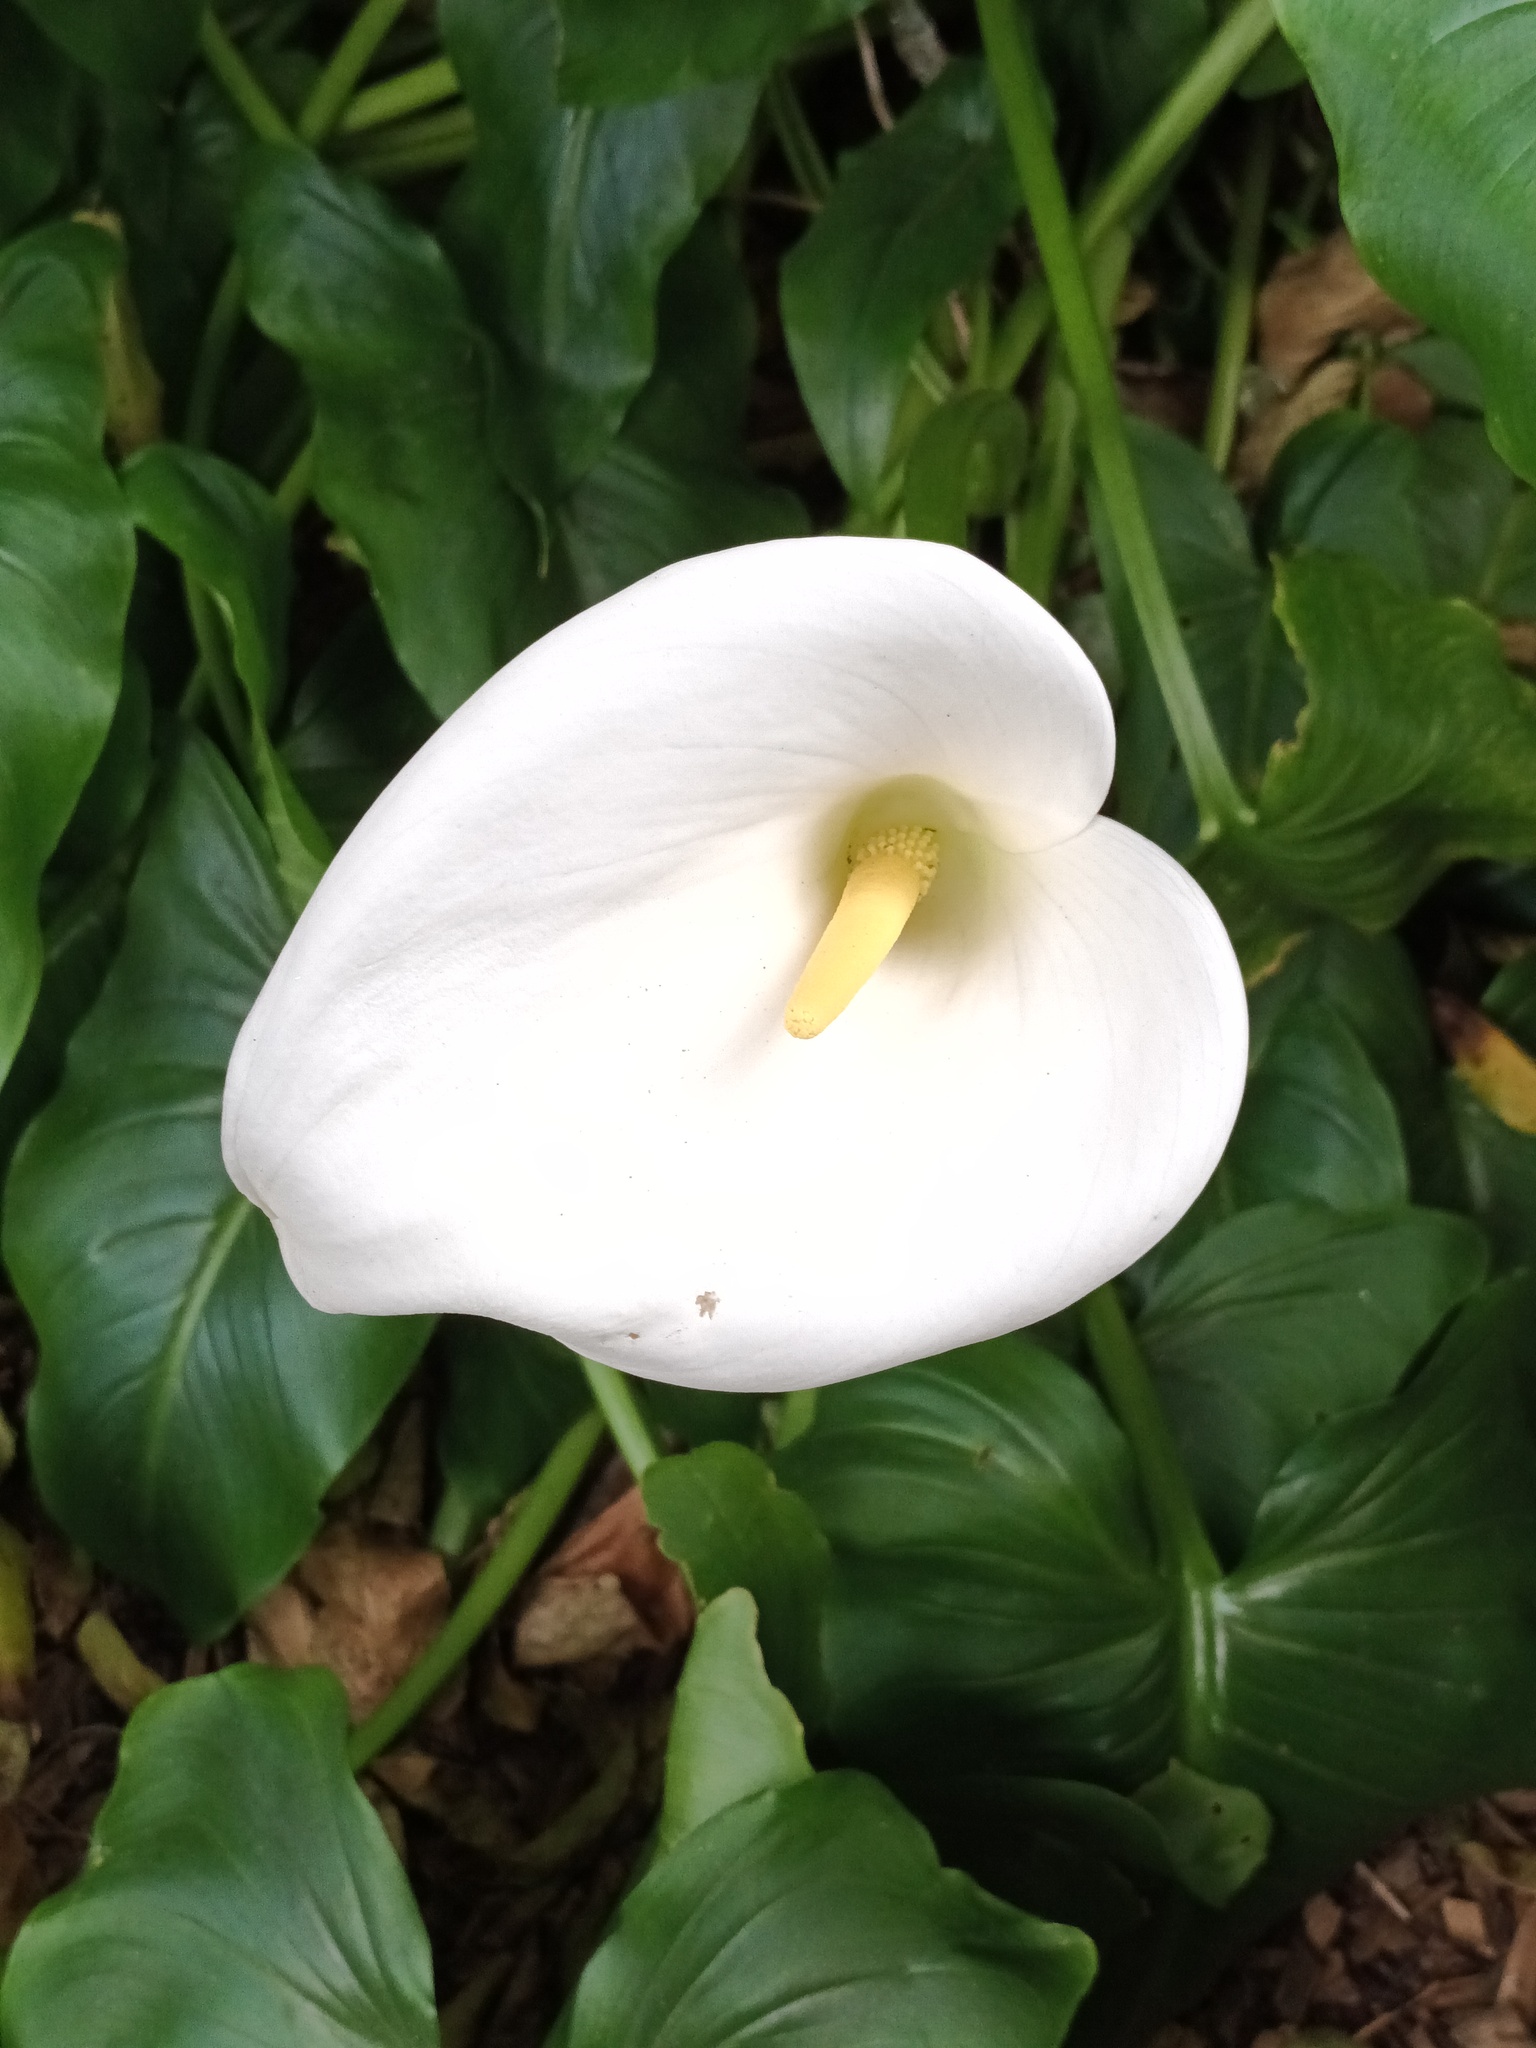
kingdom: Plantae
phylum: Tracheophyta
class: Liliopsida
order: Alismatales
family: Araceae
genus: Zantedeschia
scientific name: Zantedeschia aethiopica
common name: Altar-lily
